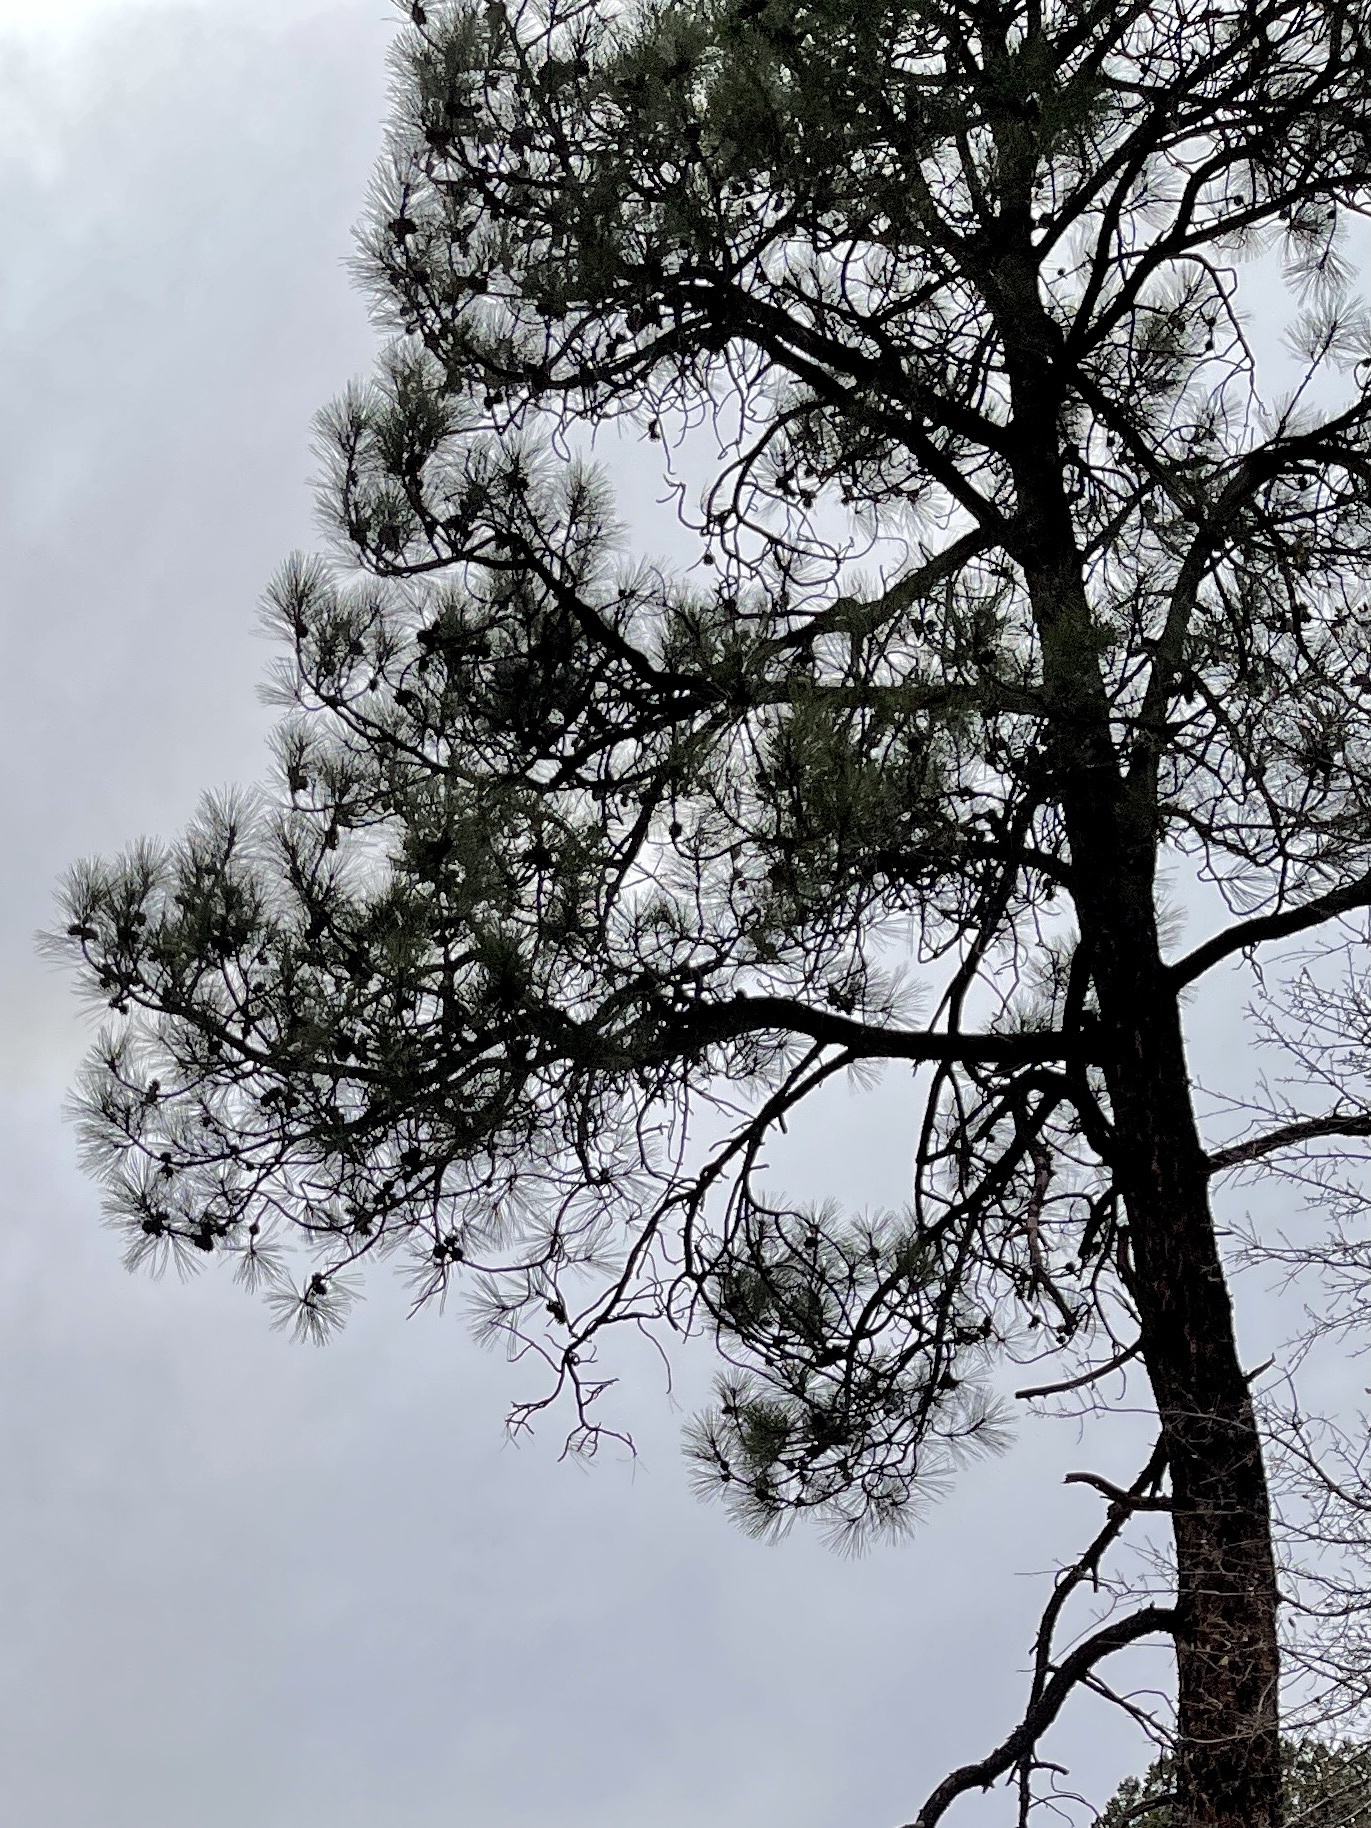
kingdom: Plantae
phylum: Tracheophyta
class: Pinopsida
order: Pinales
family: Pinaceae
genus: Pinus
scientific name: Pinus ponderosa
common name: Western yellow-pine
